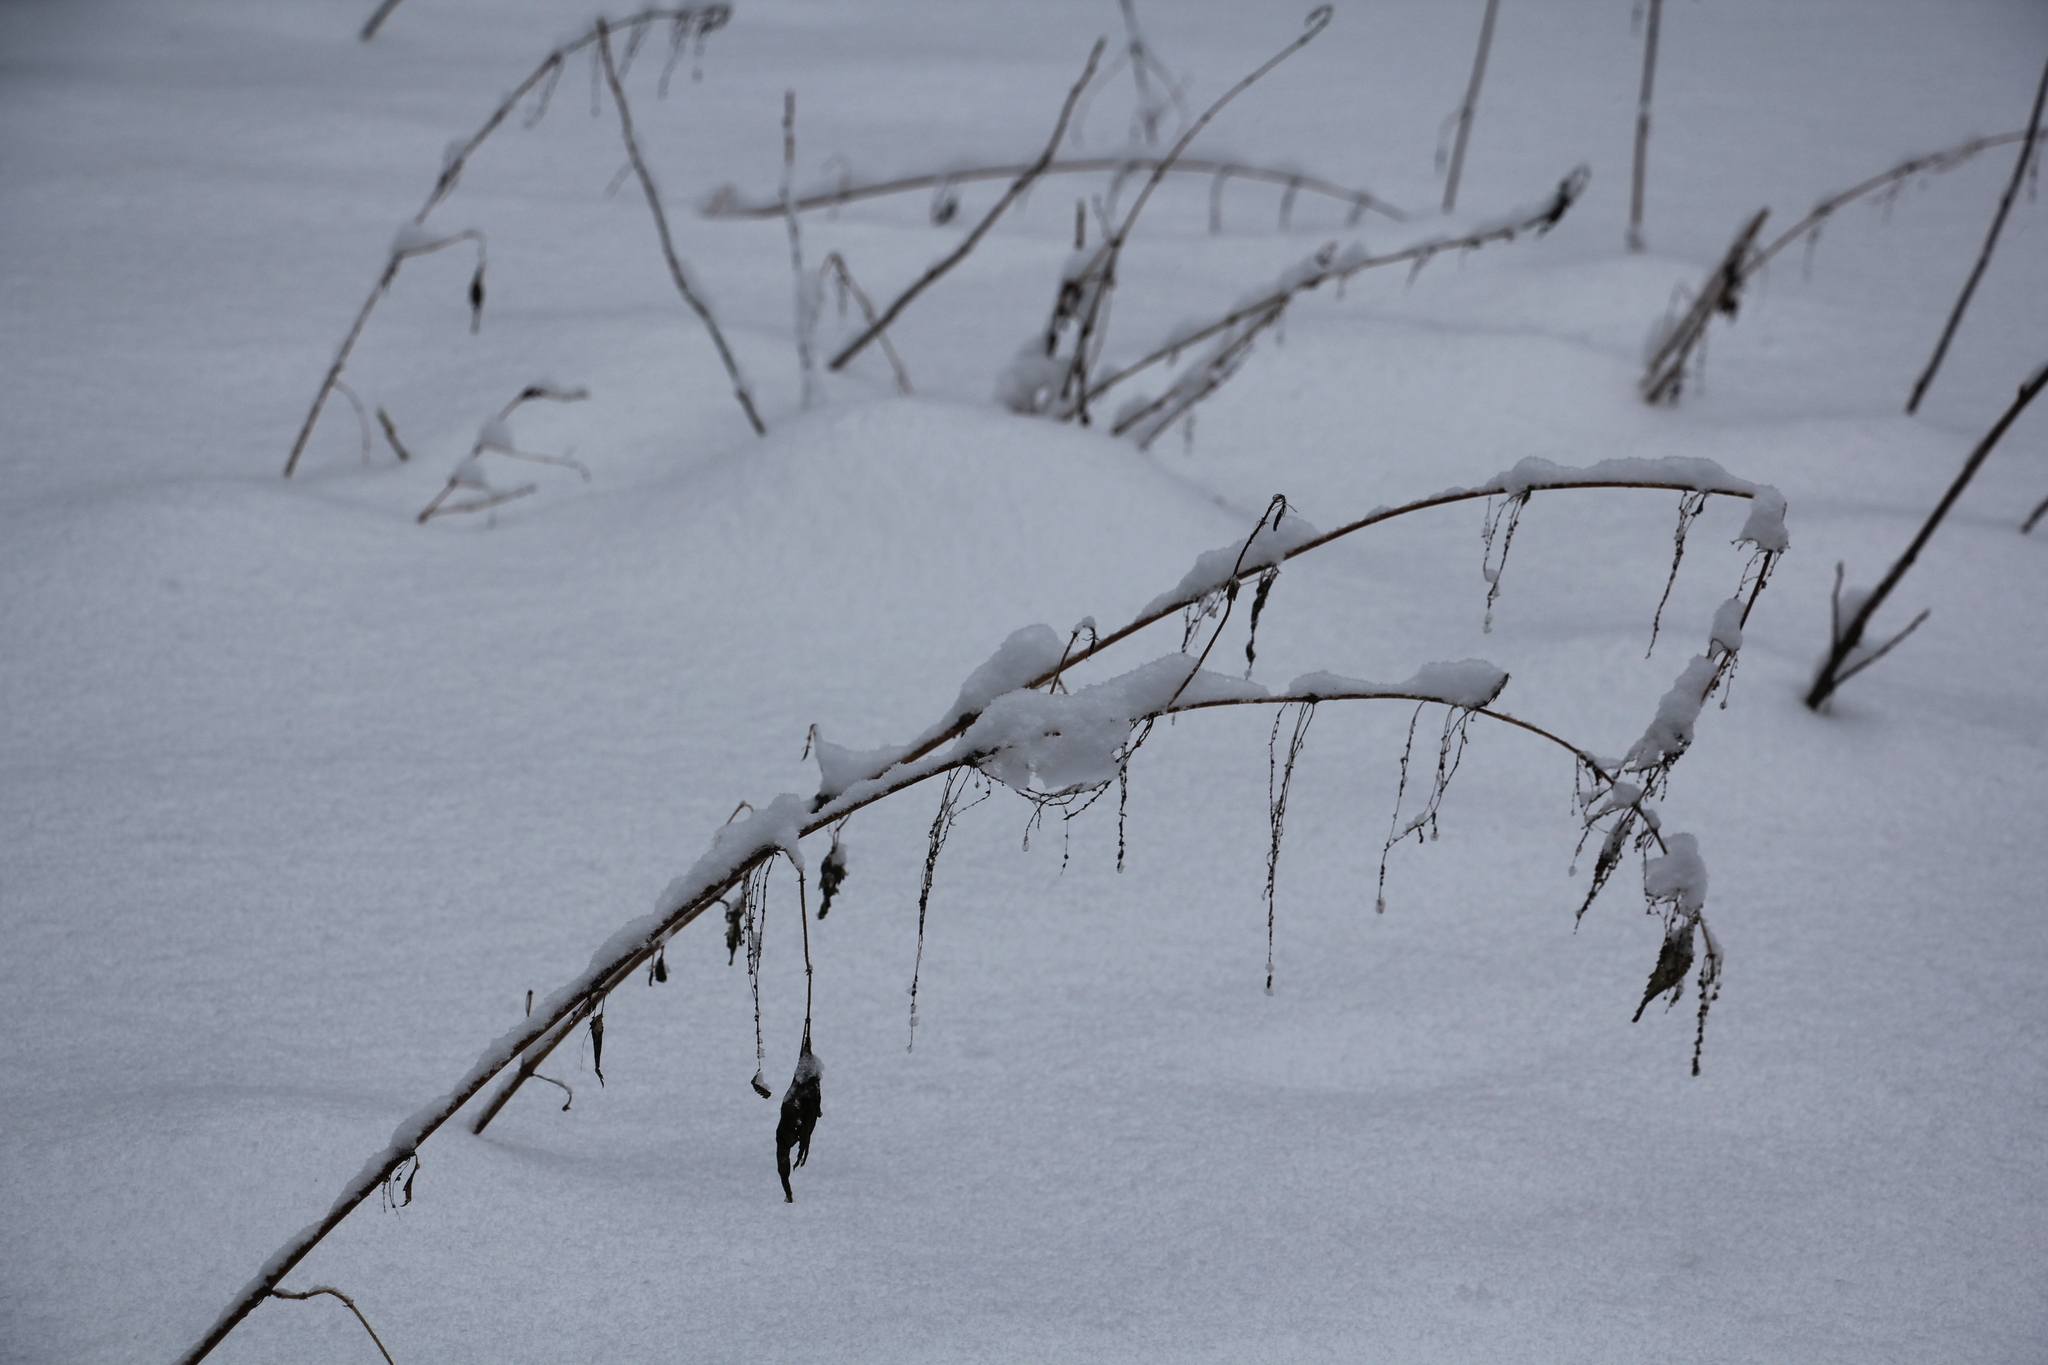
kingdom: Plantae
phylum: Tracheophyta
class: Magnoliopsida
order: Rosales
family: Urticaceae
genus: Urtica
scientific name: Urtica dioica
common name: Common nettle
